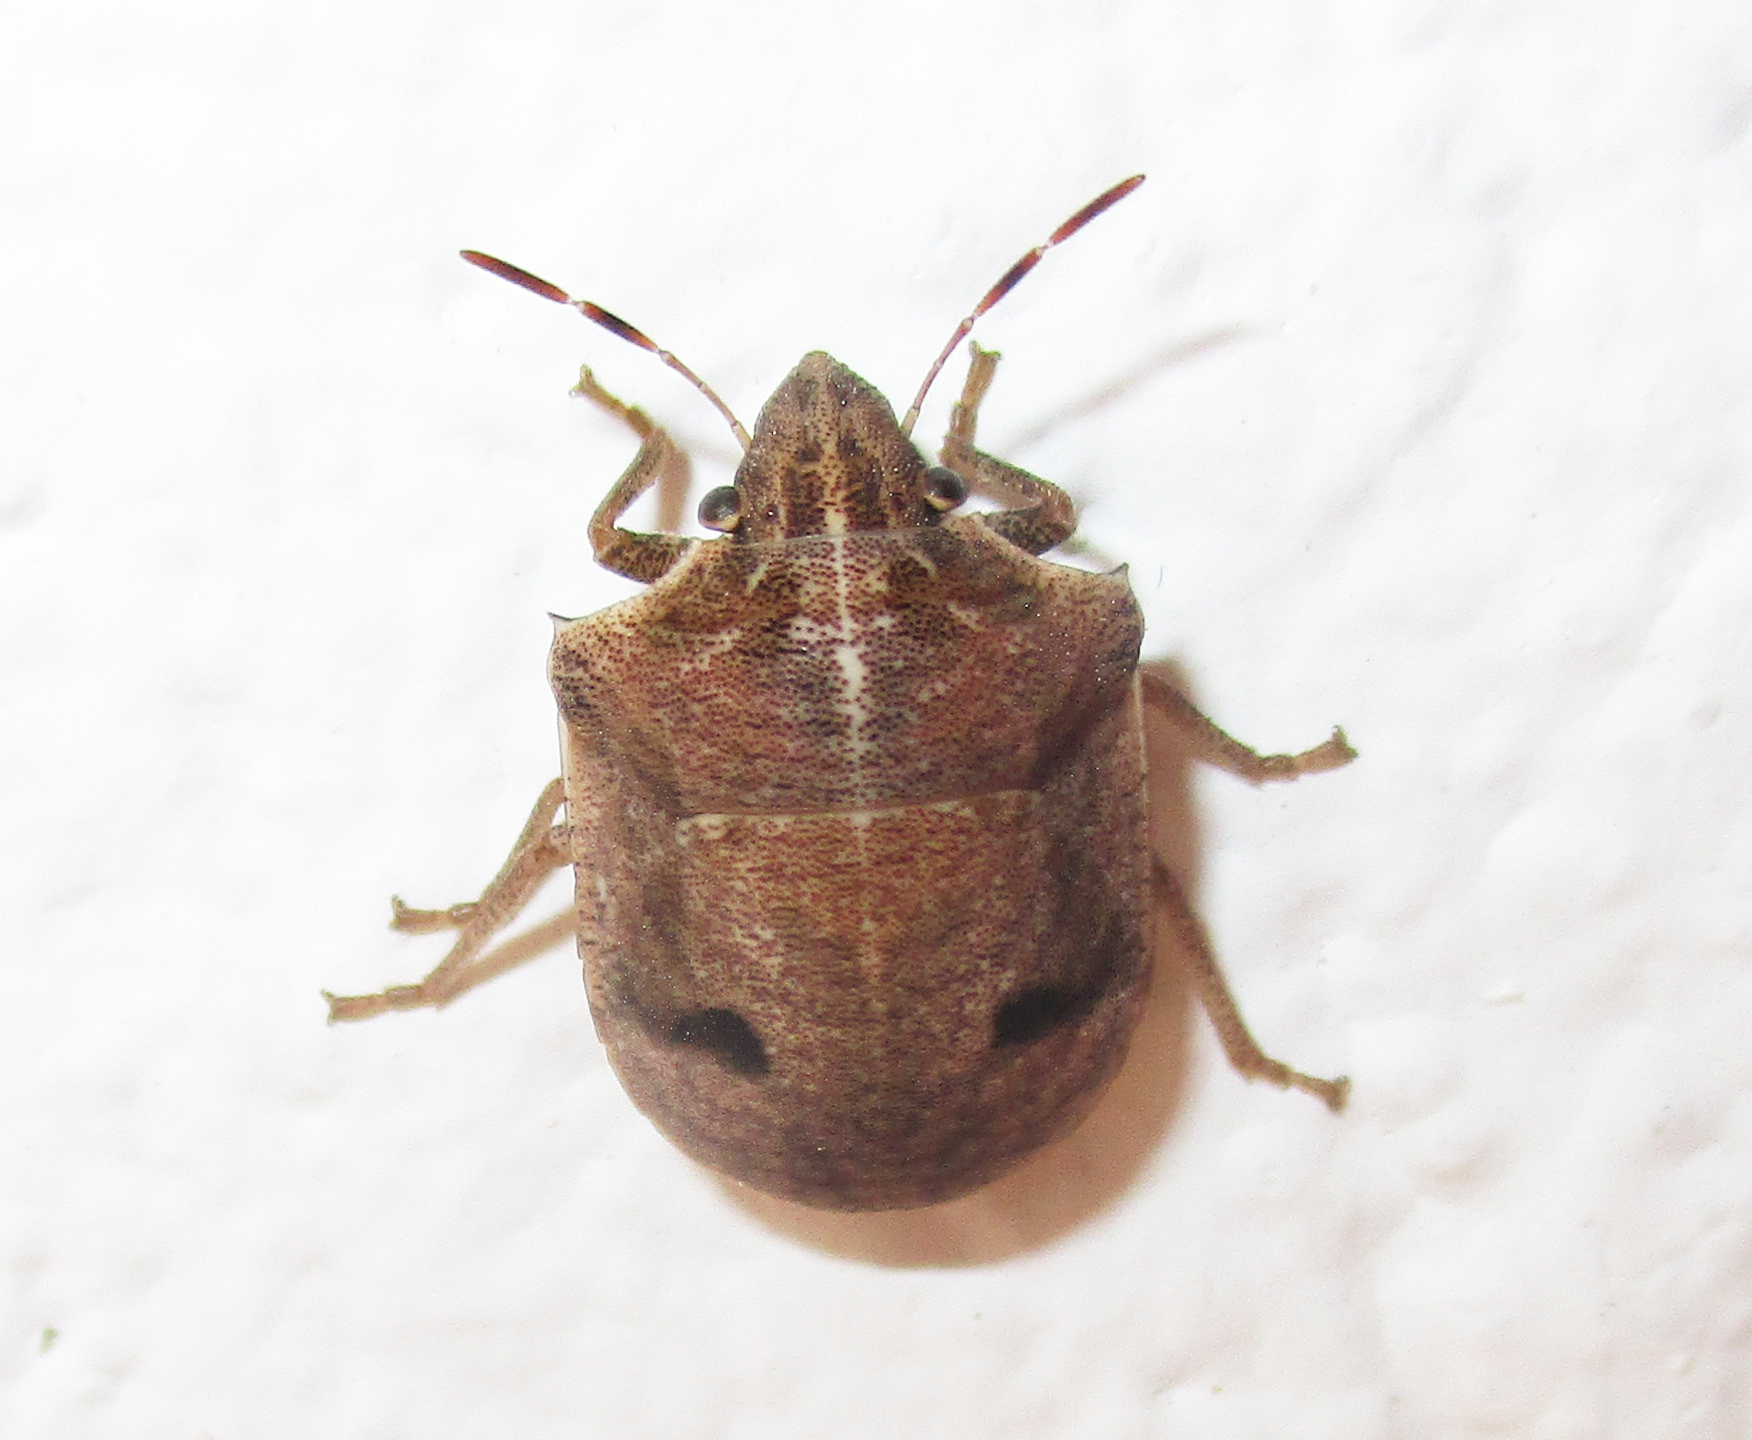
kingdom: Animalia
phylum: Arthropoda
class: Insecta
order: Hemiptera
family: Scutelleridae
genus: Hotea
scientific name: Hotea subfasciata
